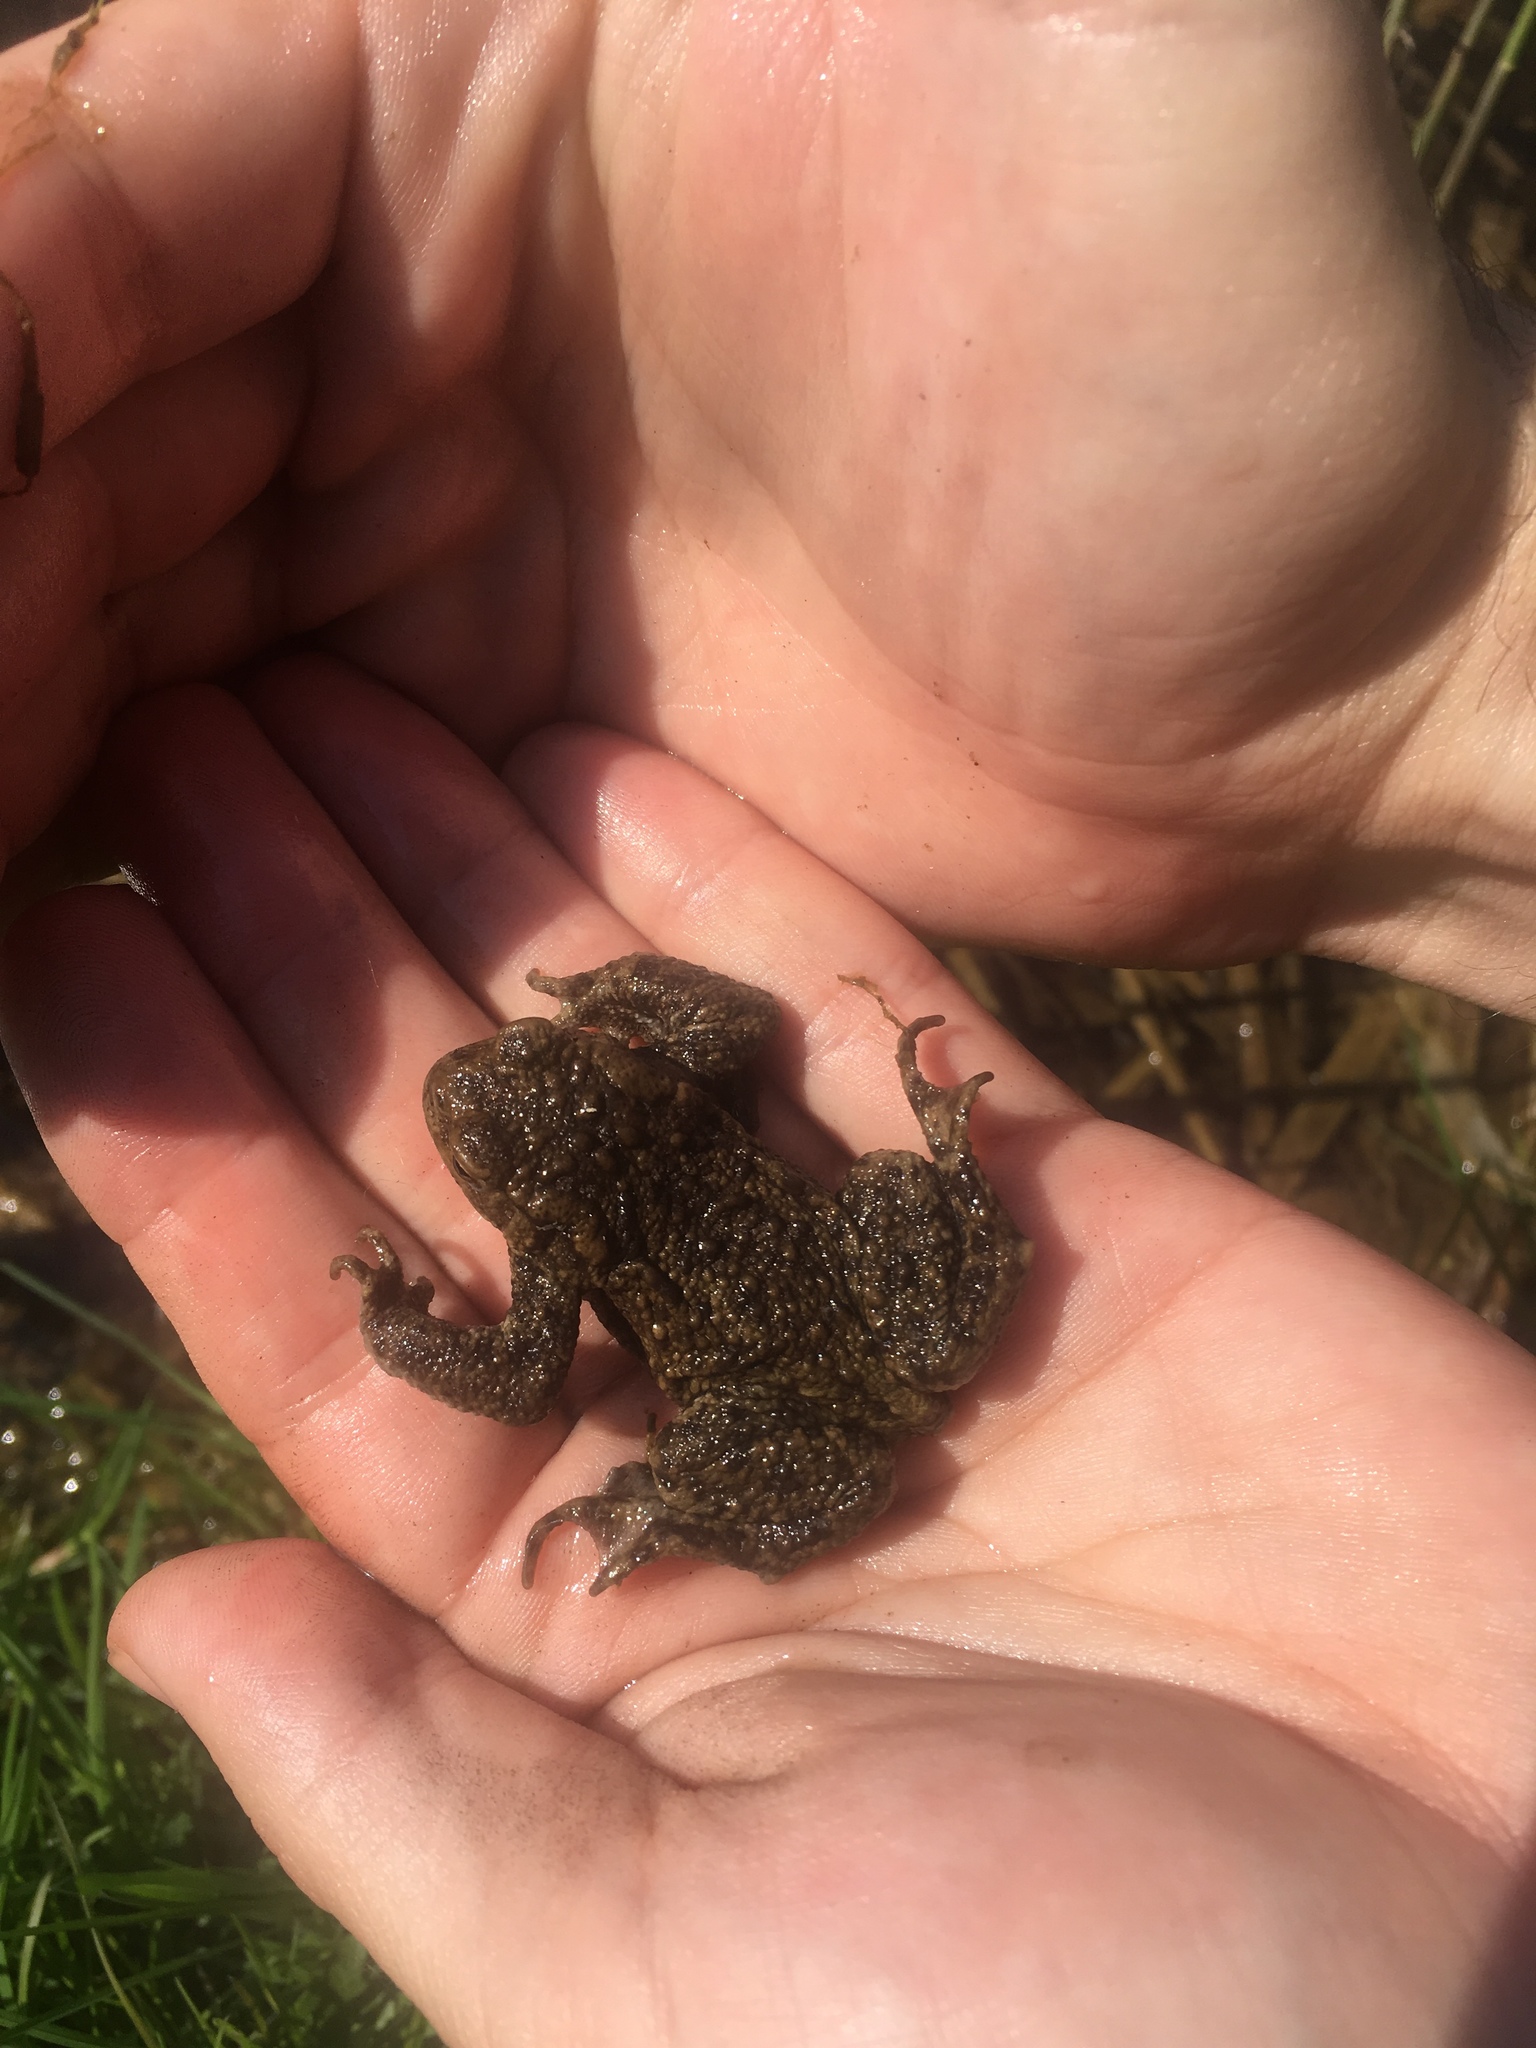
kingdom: Animalia
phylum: Chordata
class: Amphibia
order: Anura
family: Bufonidae
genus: Bufo
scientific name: Bufo bufo
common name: Common toad
